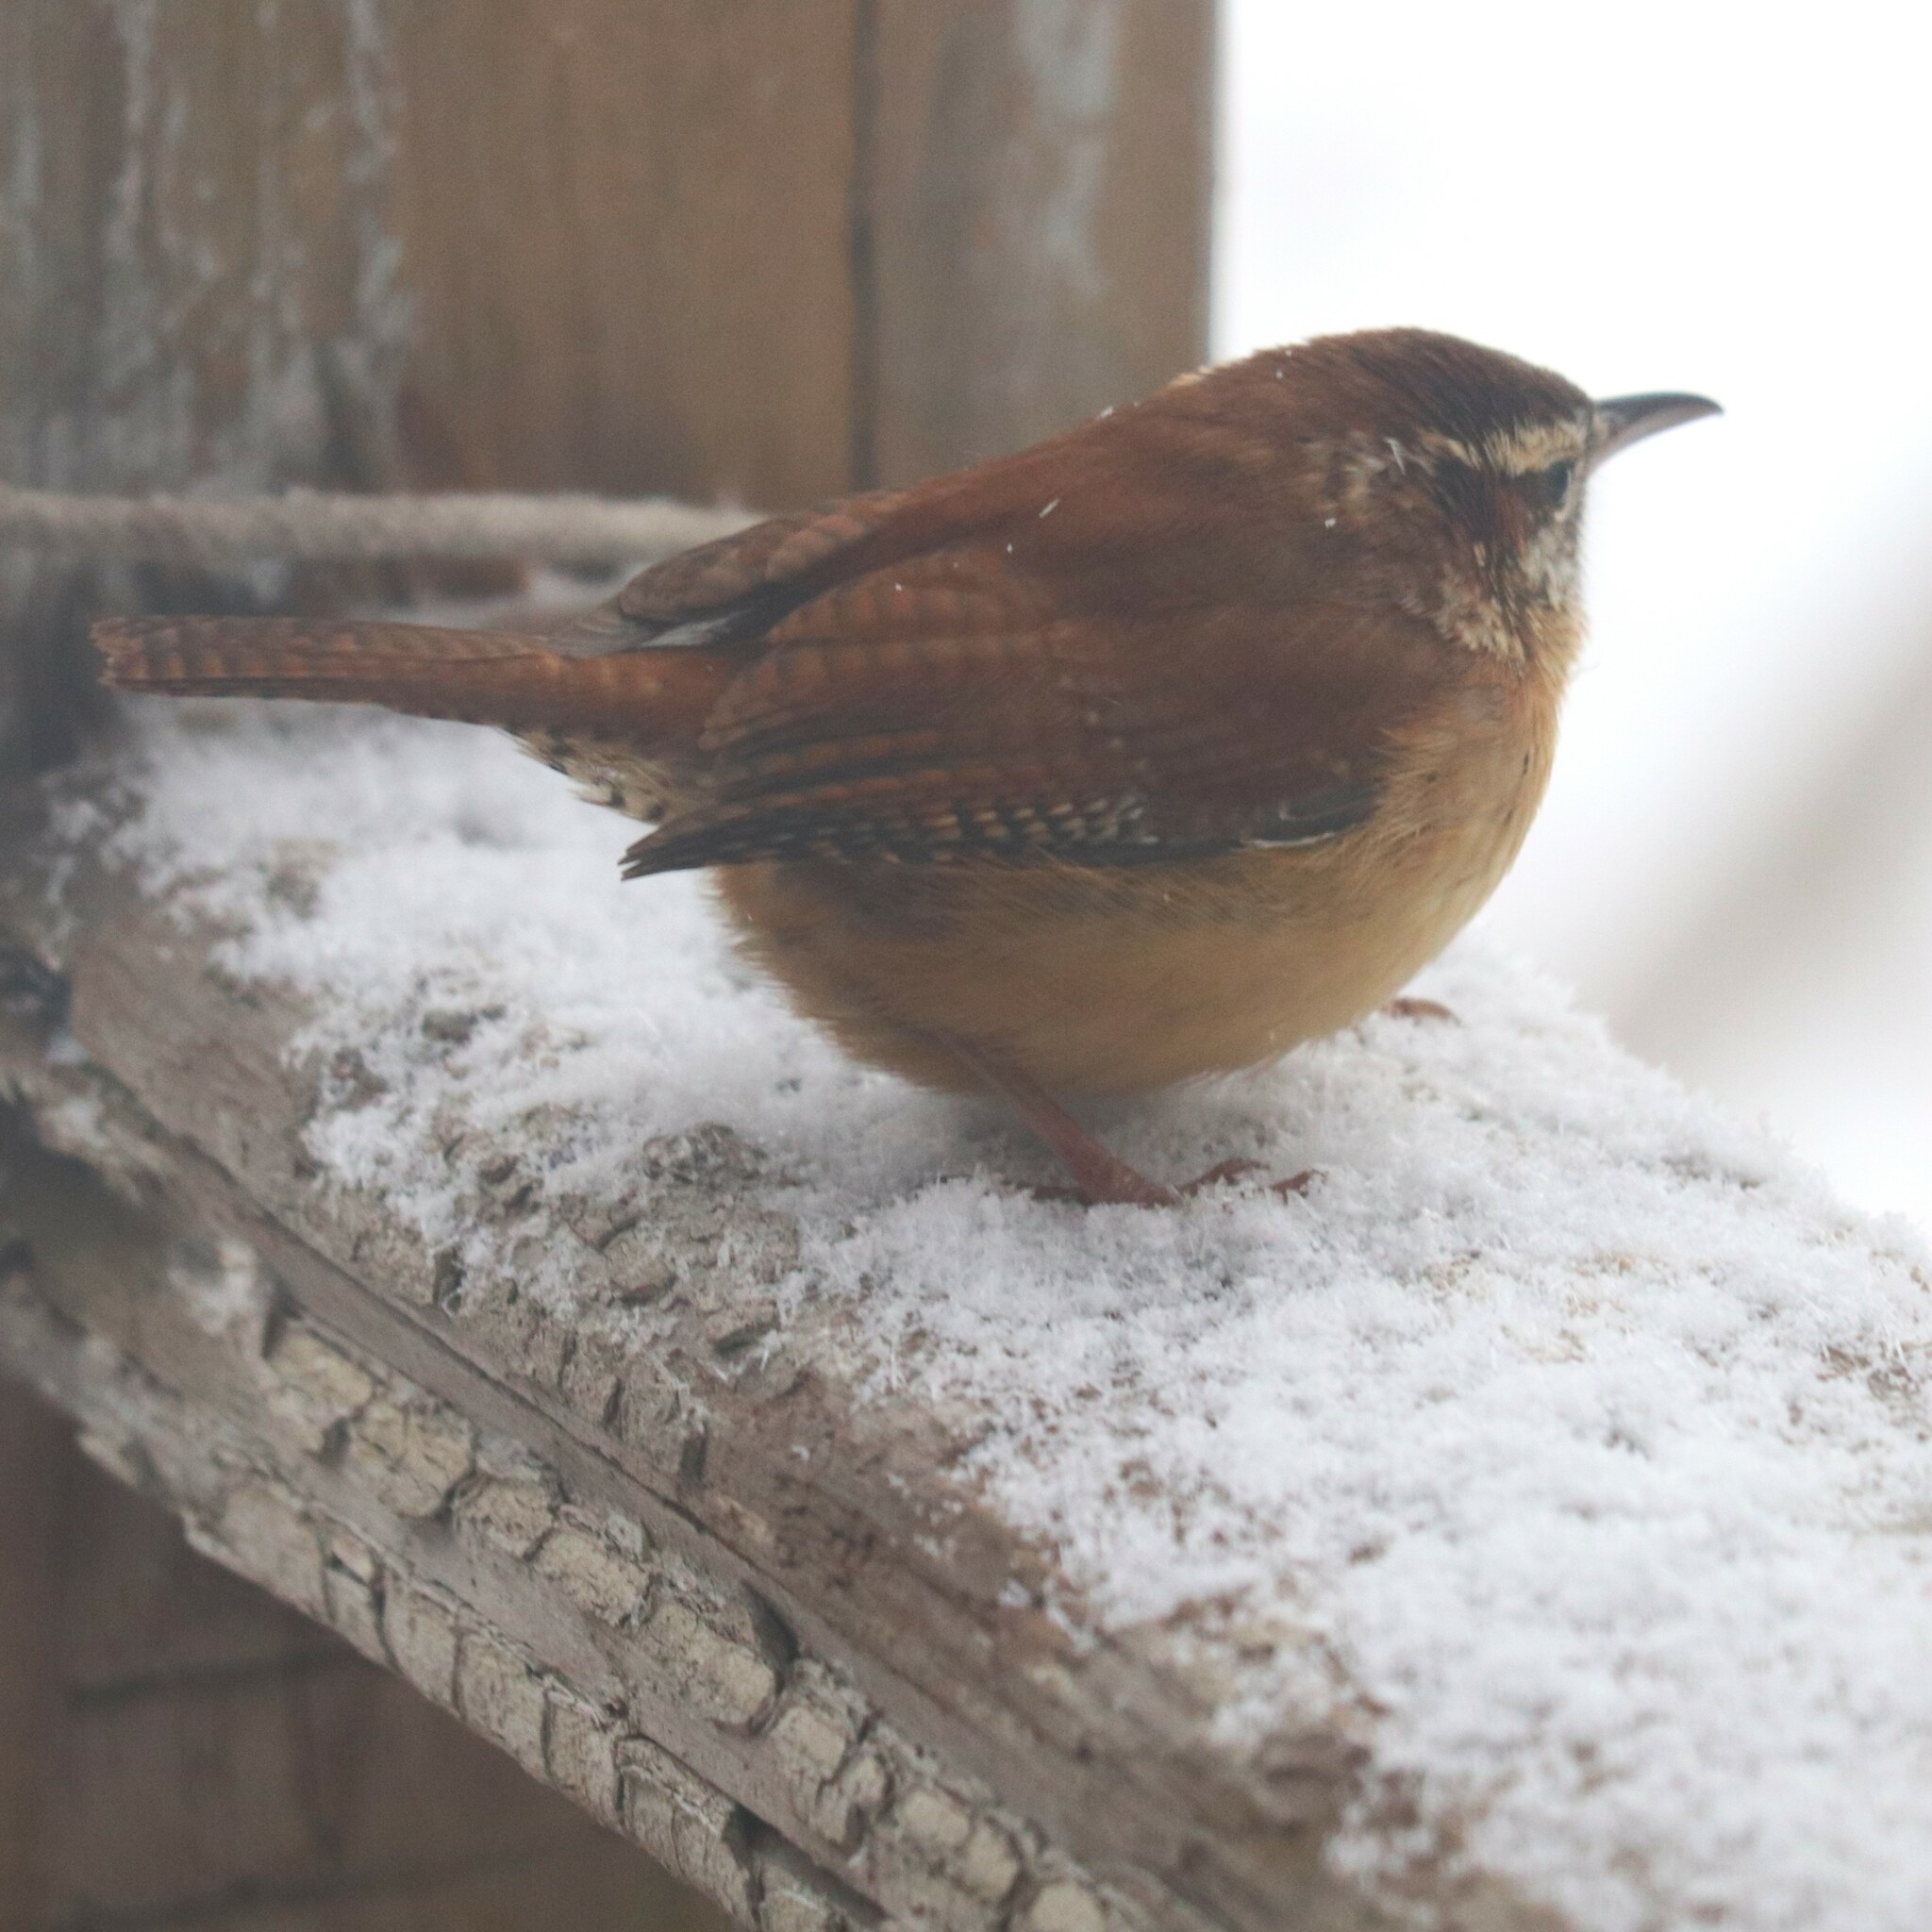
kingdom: Animalia
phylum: Chordata
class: Aves
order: Passeriformes
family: Troglodytidae
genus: Thryothorus
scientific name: Thryothorus ludovicianus
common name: Carolina wren
